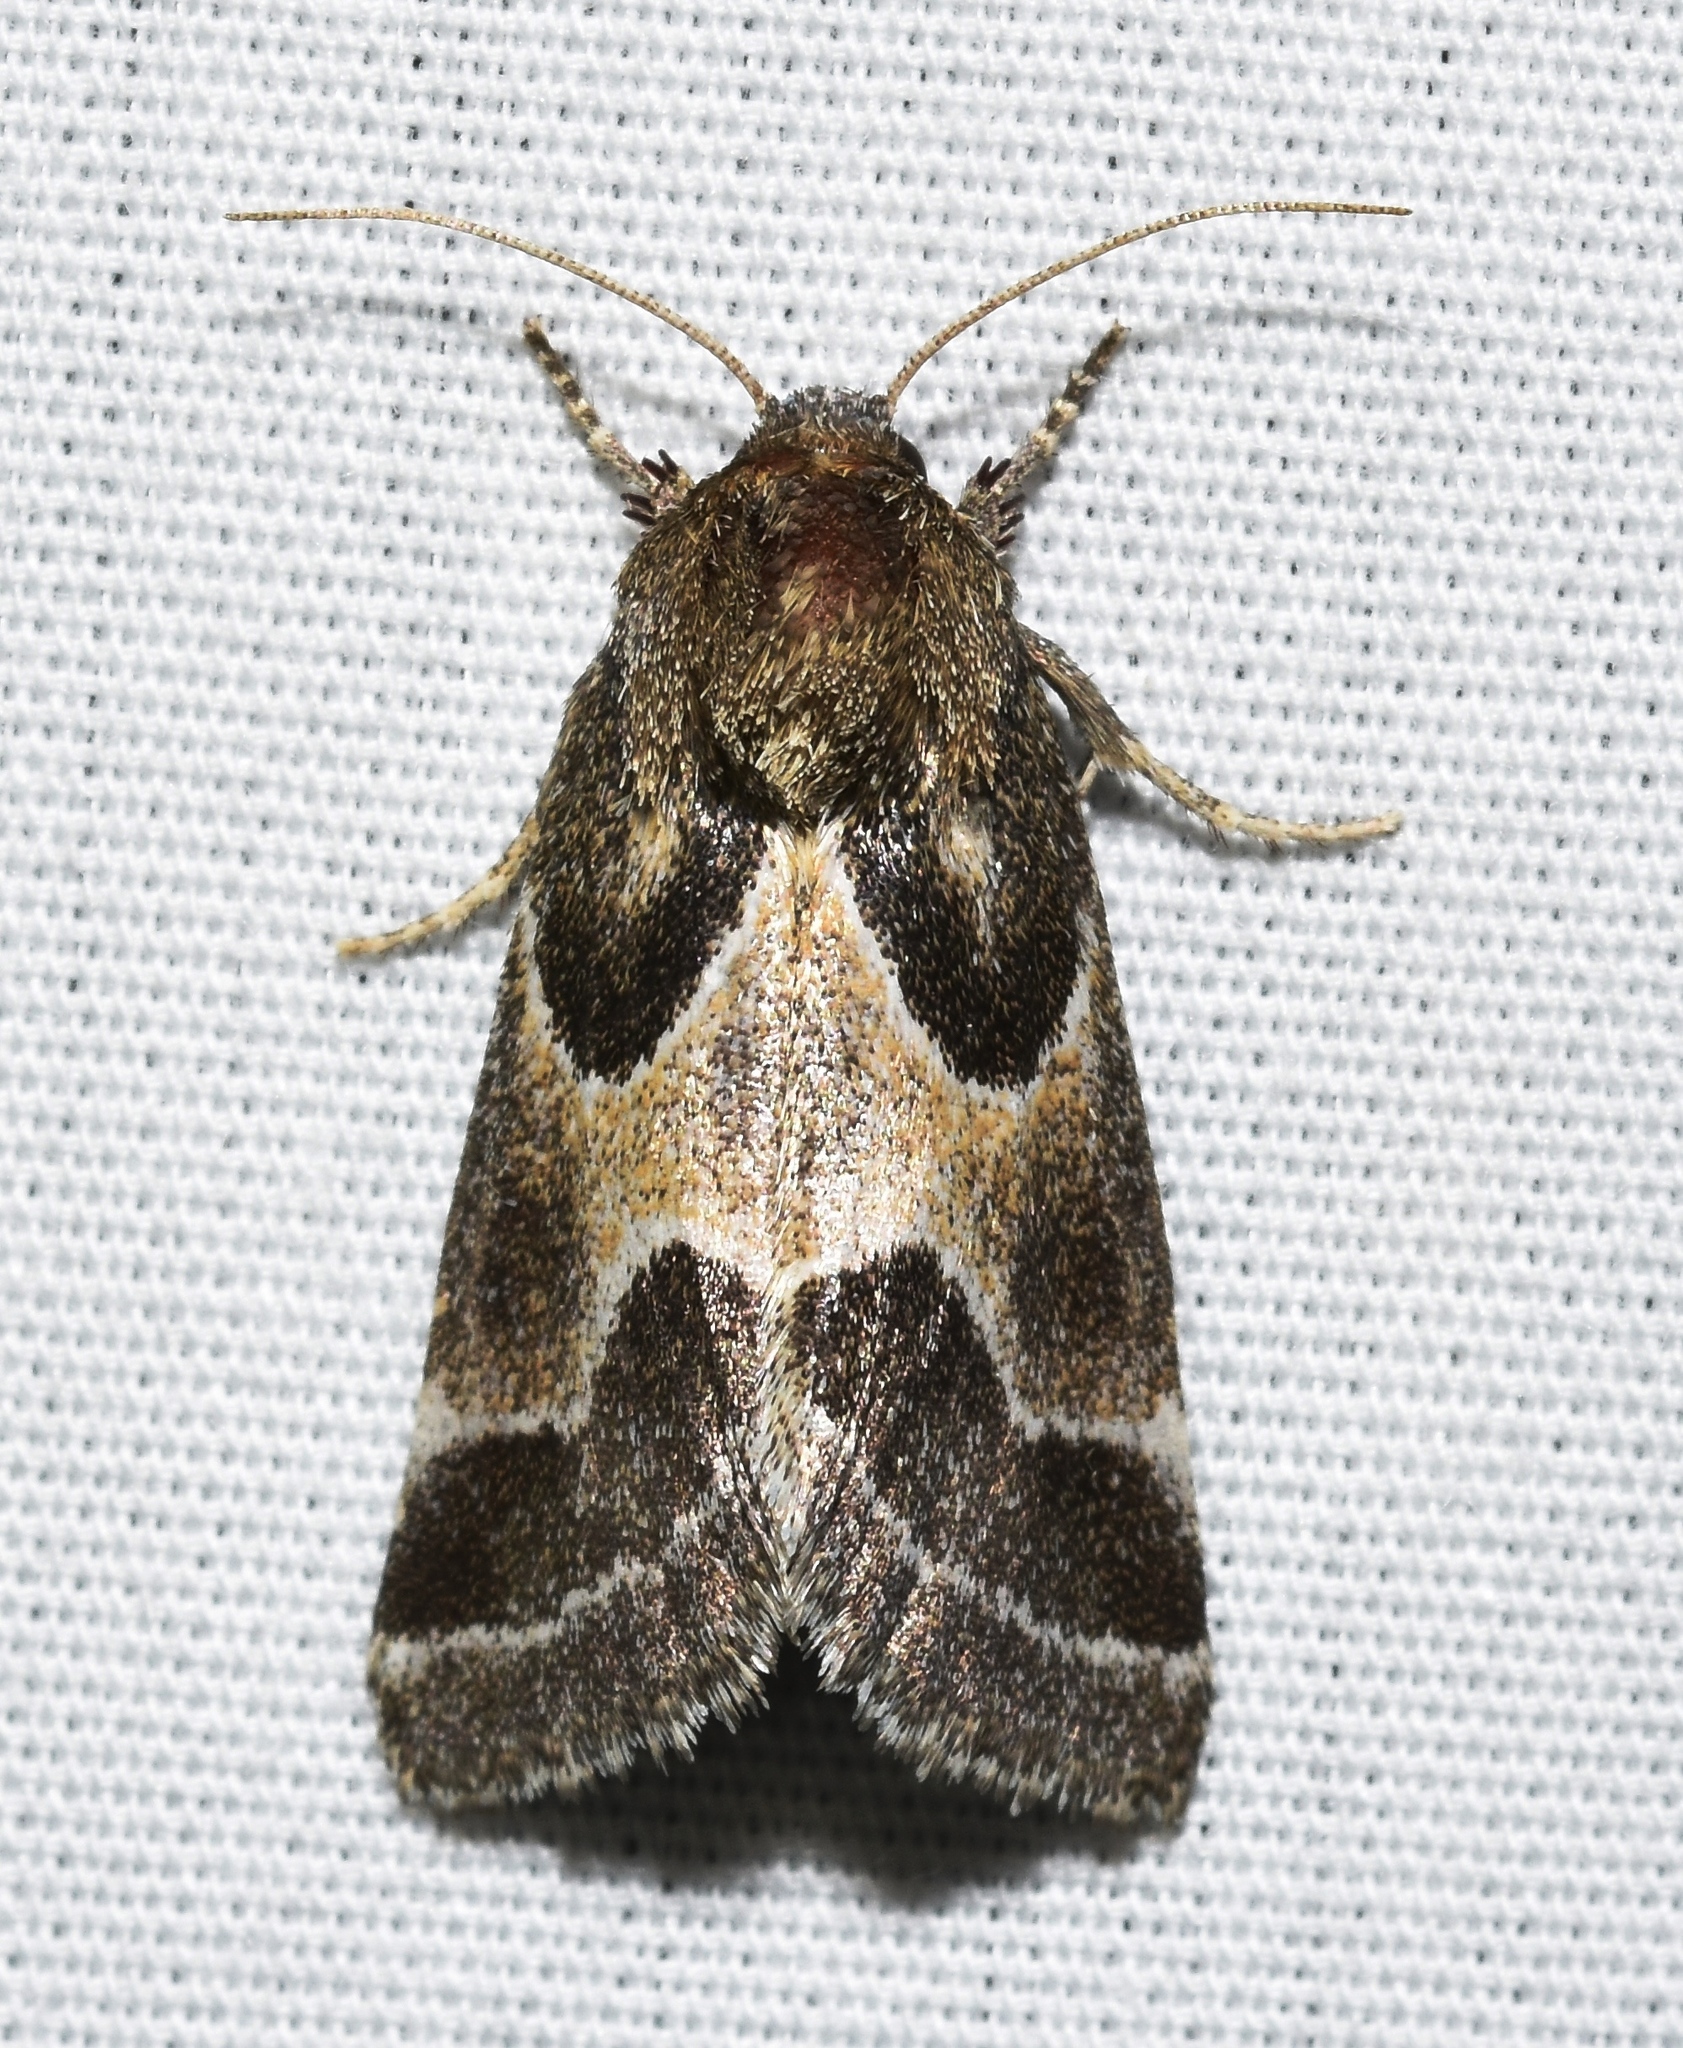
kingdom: Animalia
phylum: Arthropoda
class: Insecta
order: Lepidoptera
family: Noctuidae
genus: Schinia
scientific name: Schinia rivulosa
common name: Scarce meal-moth
